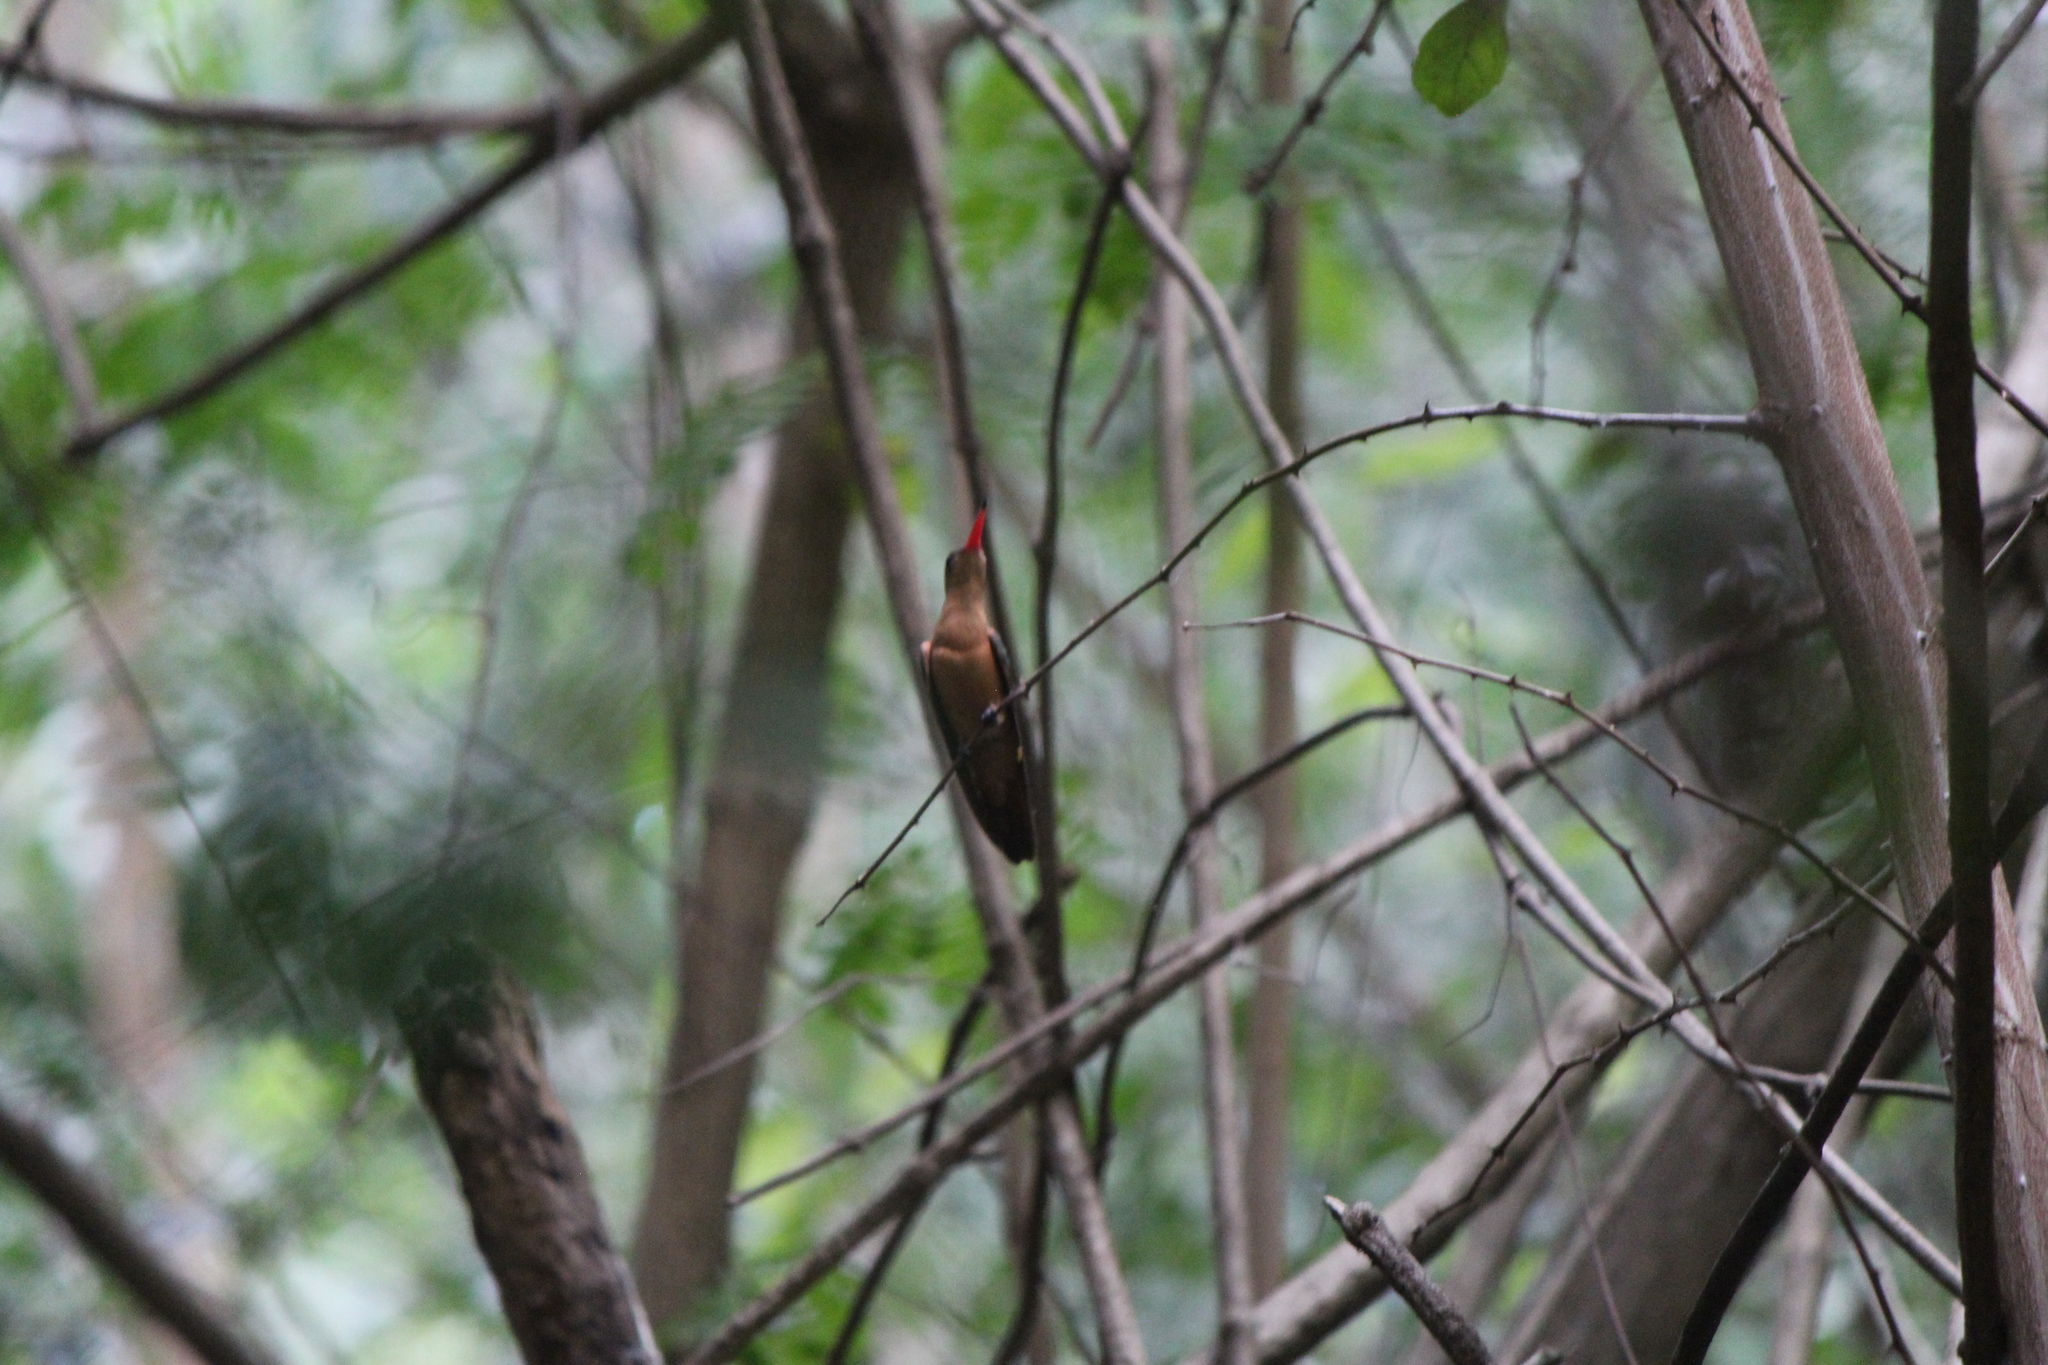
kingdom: Animalia
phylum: Chordata
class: Aves
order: Apodiformes
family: Trochilidae
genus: Amazilia
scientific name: Amazilia rutila
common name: Cinnamon hummingbird
